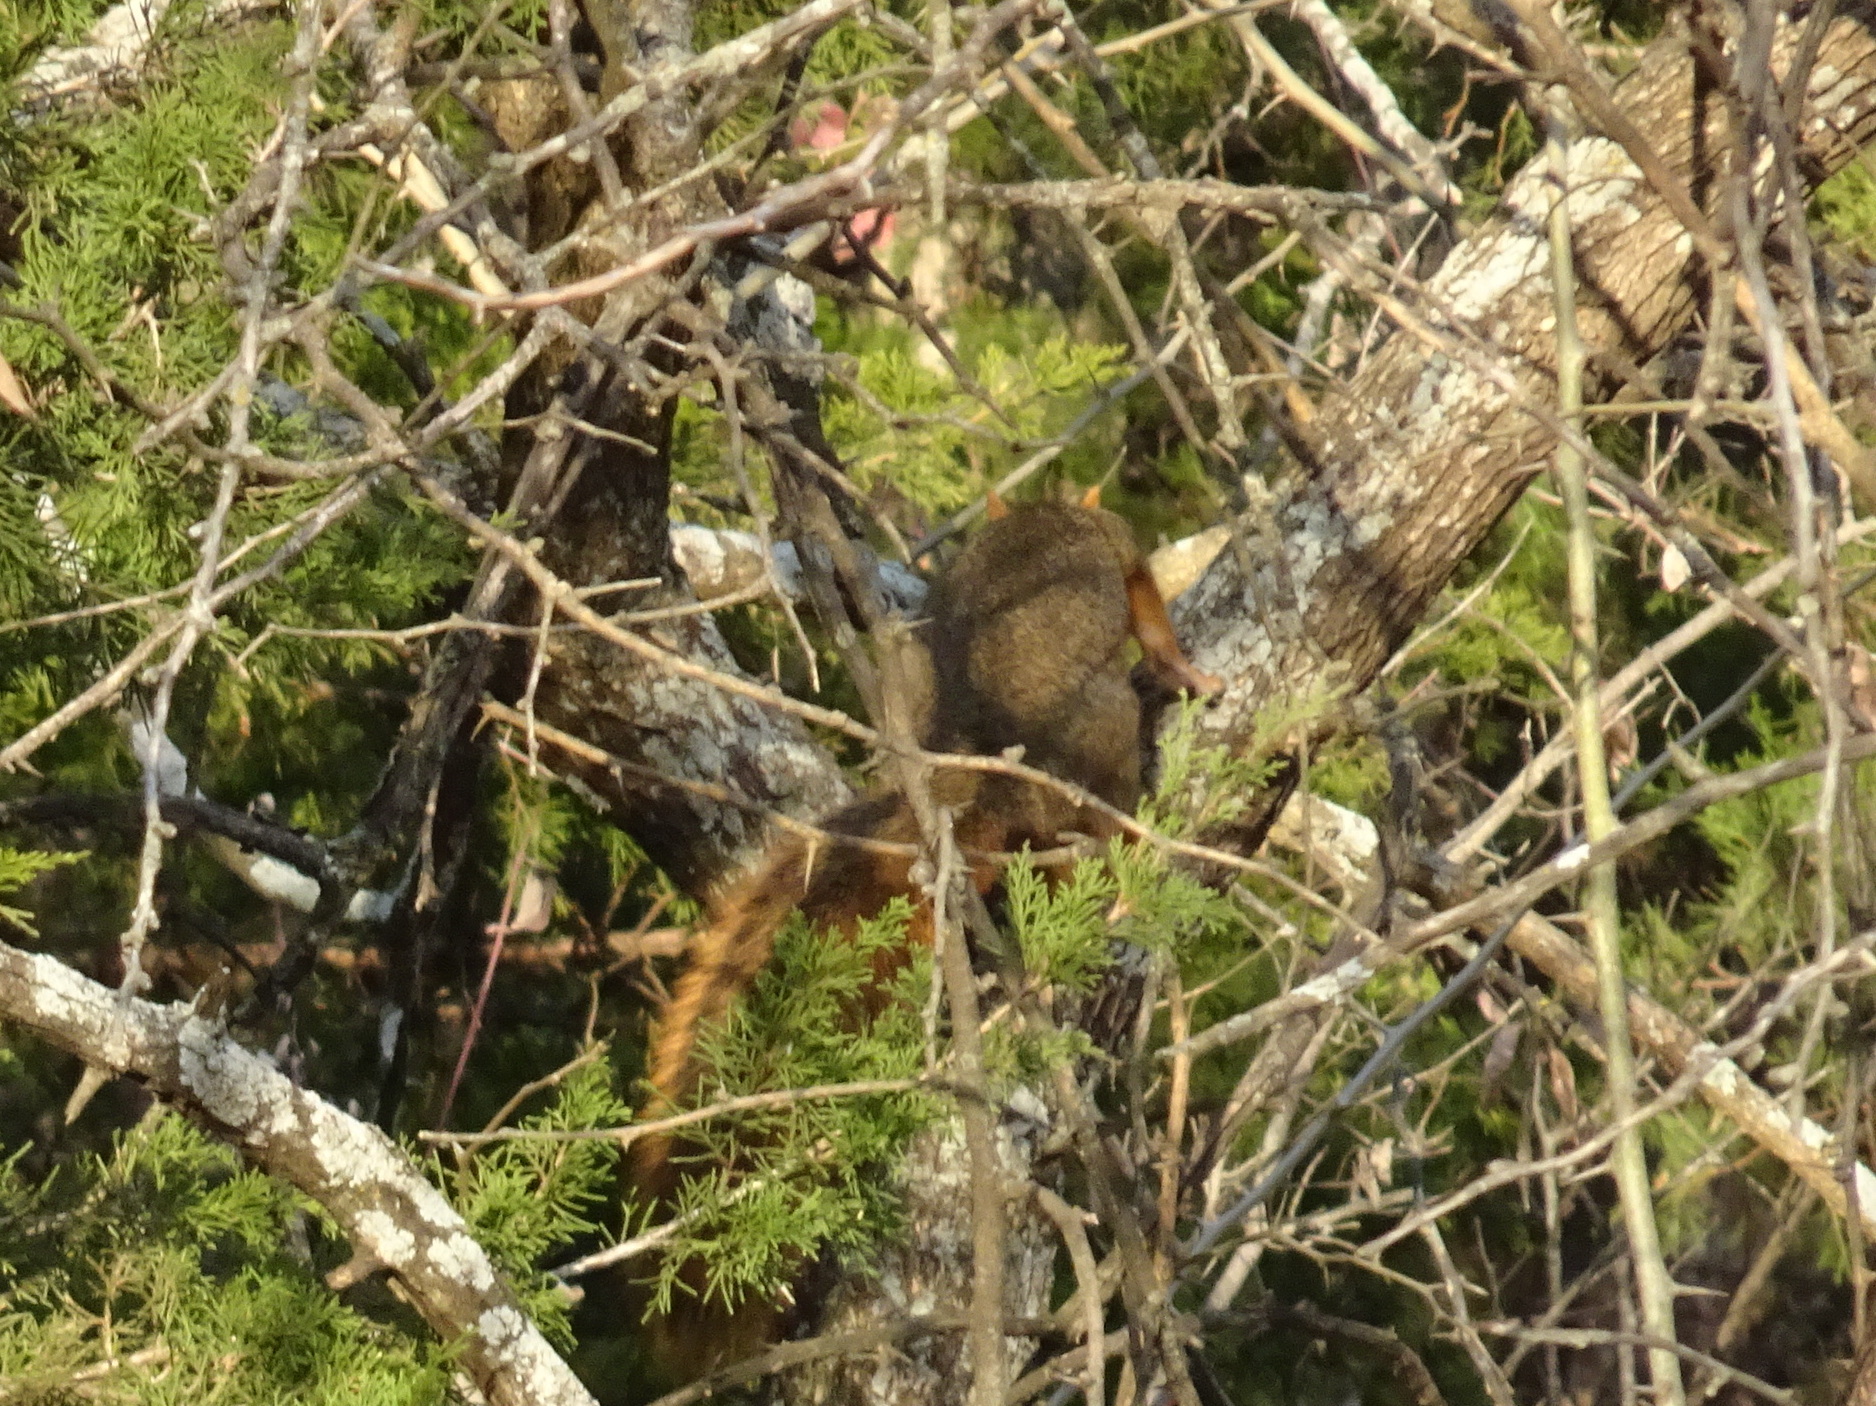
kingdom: Animalia
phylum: Chordata
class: Mammalia
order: Rodentia
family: Sciuridae
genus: Sciurus
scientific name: Sciurus niger
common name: Fox squirrel
